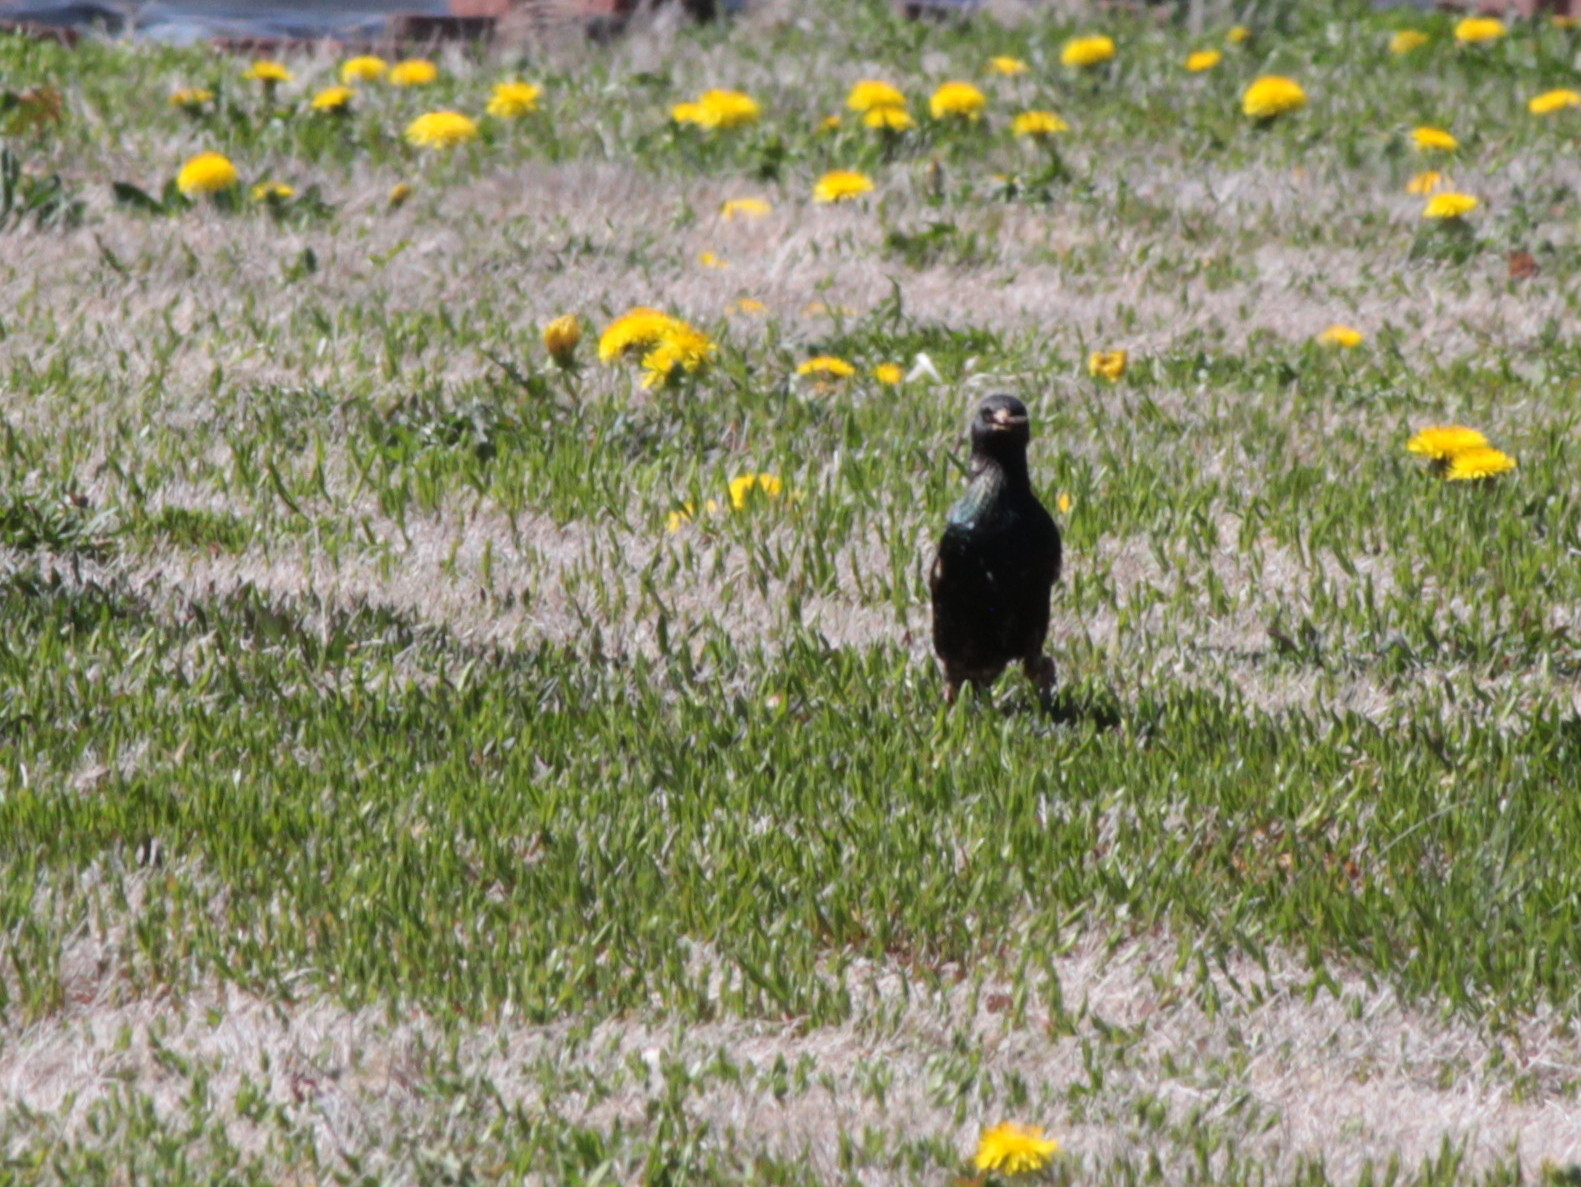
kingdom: Animalia
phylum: Chordata
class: Aves
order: Passeriformes
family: Sturnidae
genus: Sturnus
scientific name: Sturnus vulgaris
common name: Common starling
